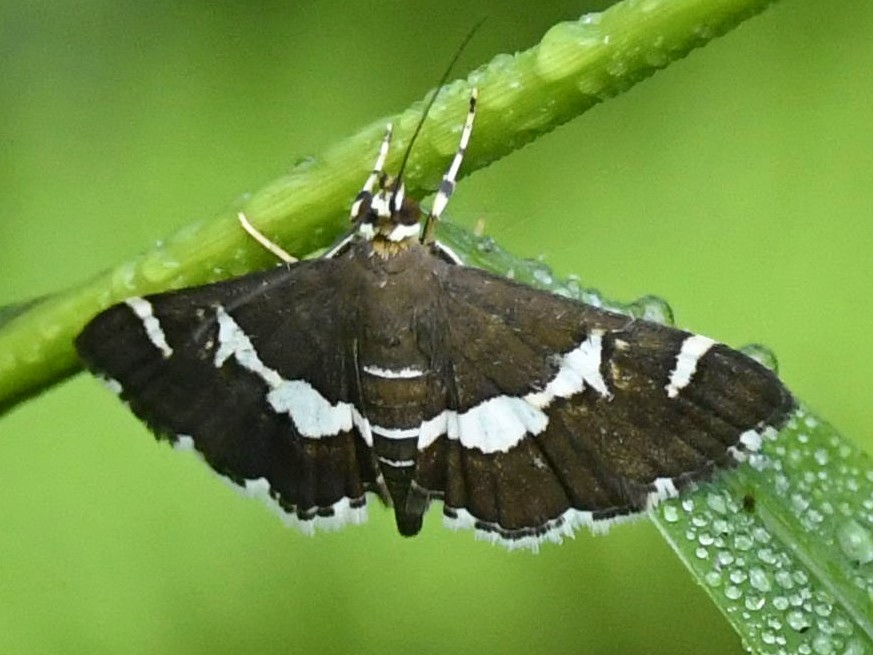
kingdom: Animalia
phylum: Arthropoda
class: Insecta
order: Lepidoptera
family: Crambidae
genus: Spoladea
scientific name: Spoladea recurvalis
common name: Beet webworm moth
